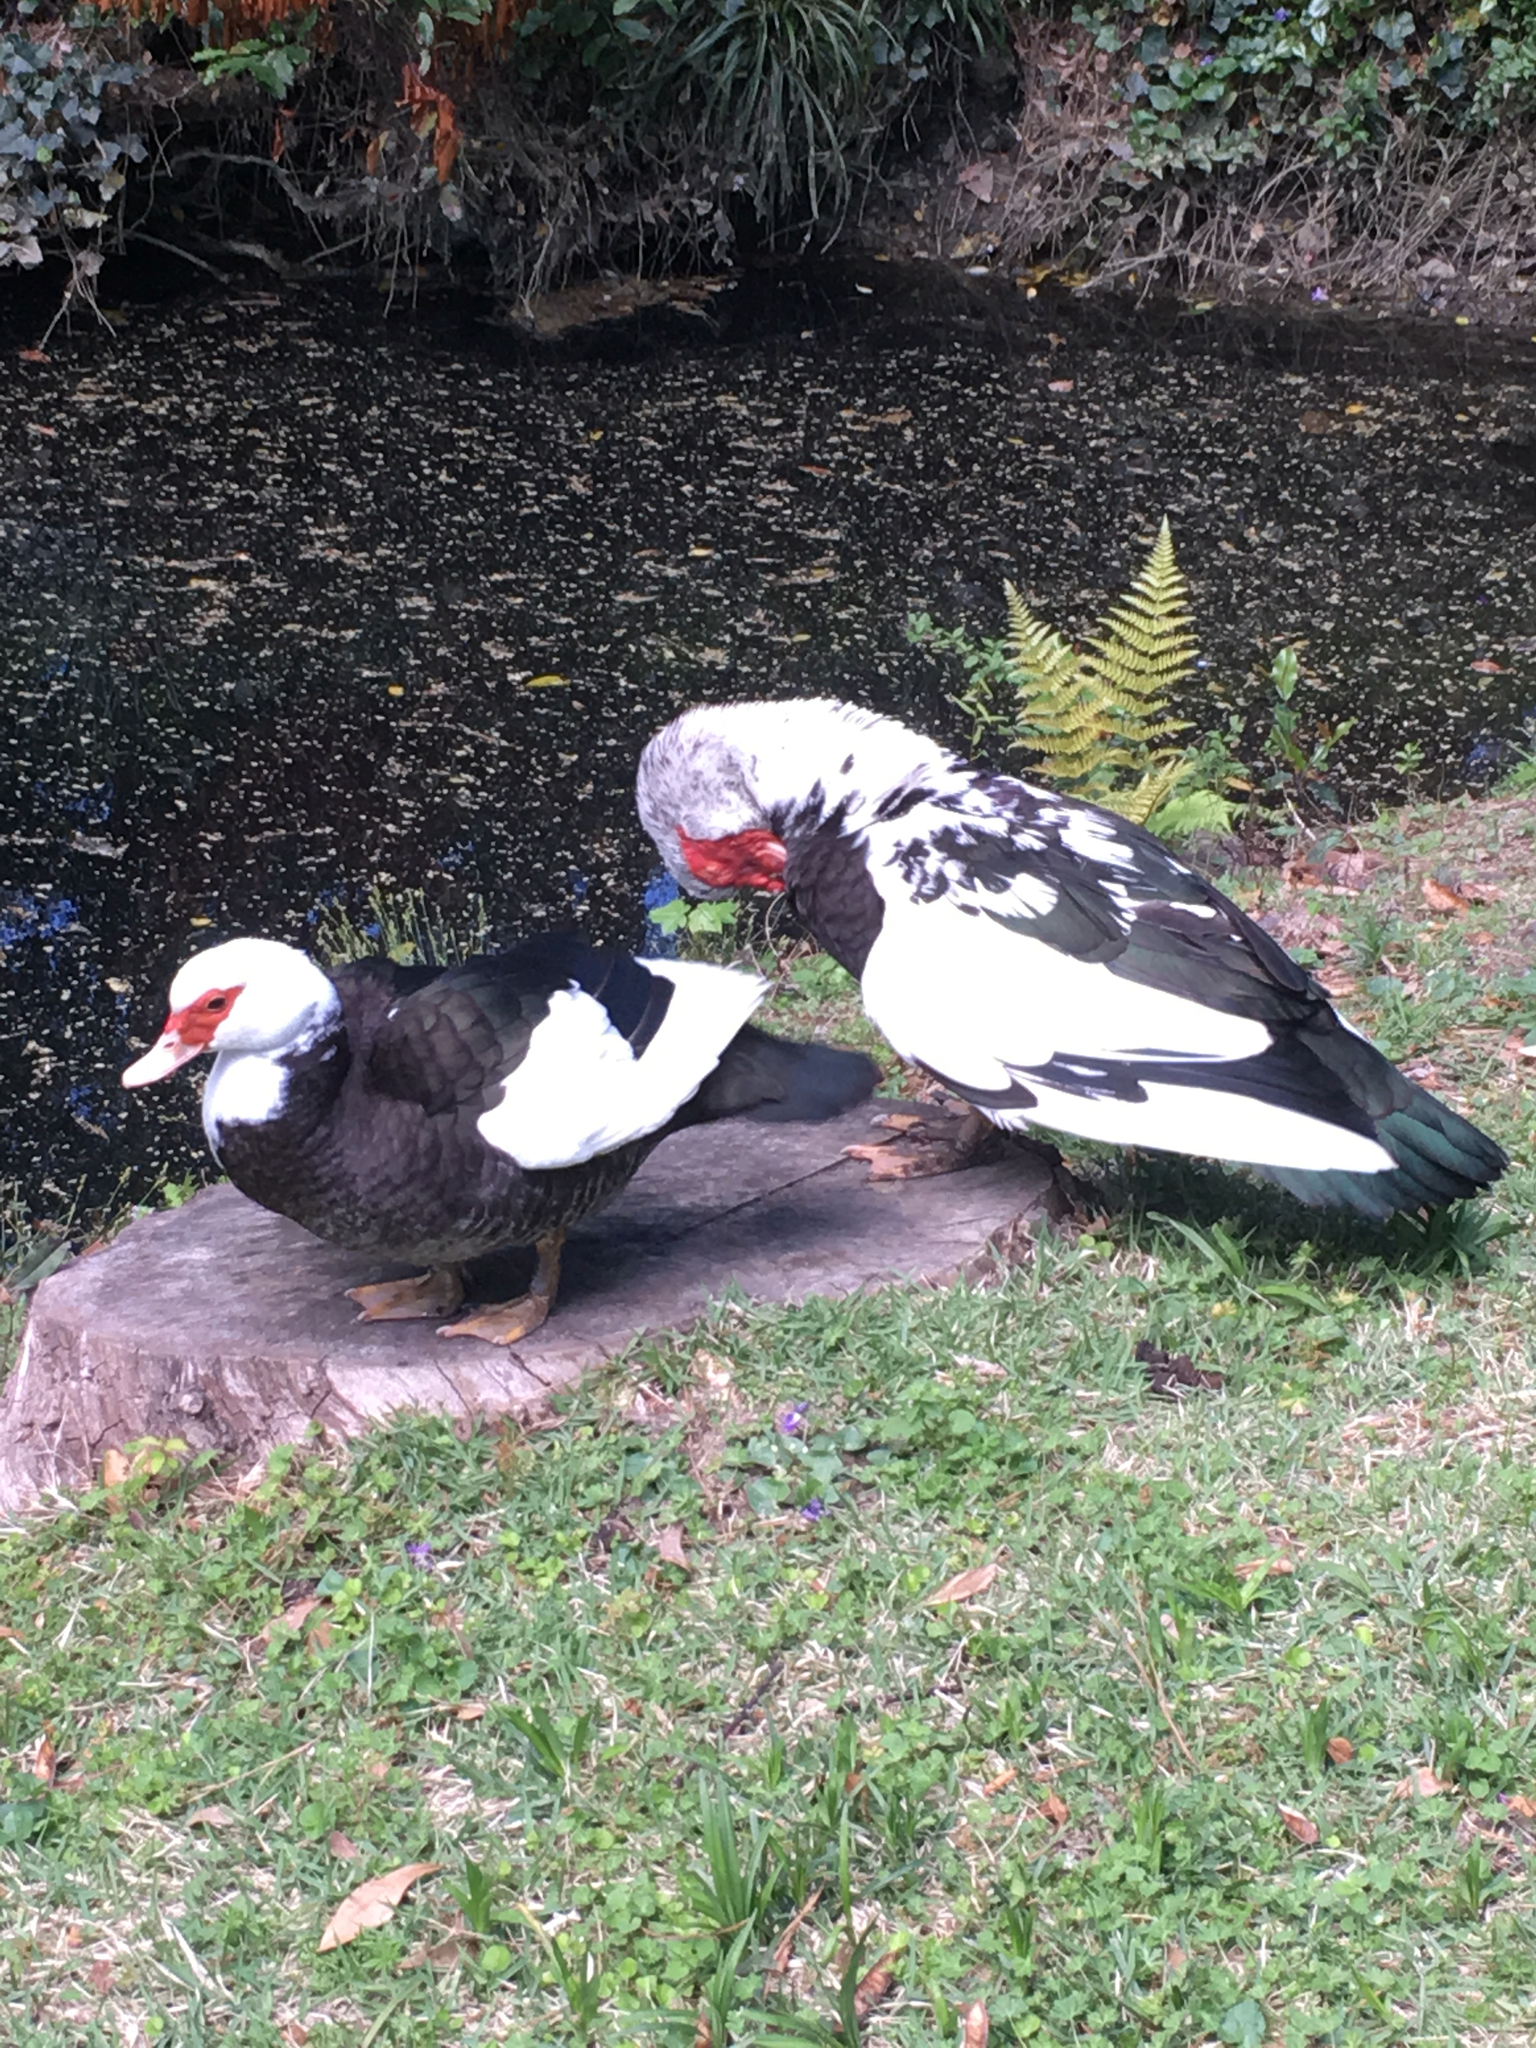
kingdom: Animalia
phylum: Chordata
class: Aves
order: Anseriformes
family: Anatidae
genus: Cairina
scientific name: Cairina moschata
